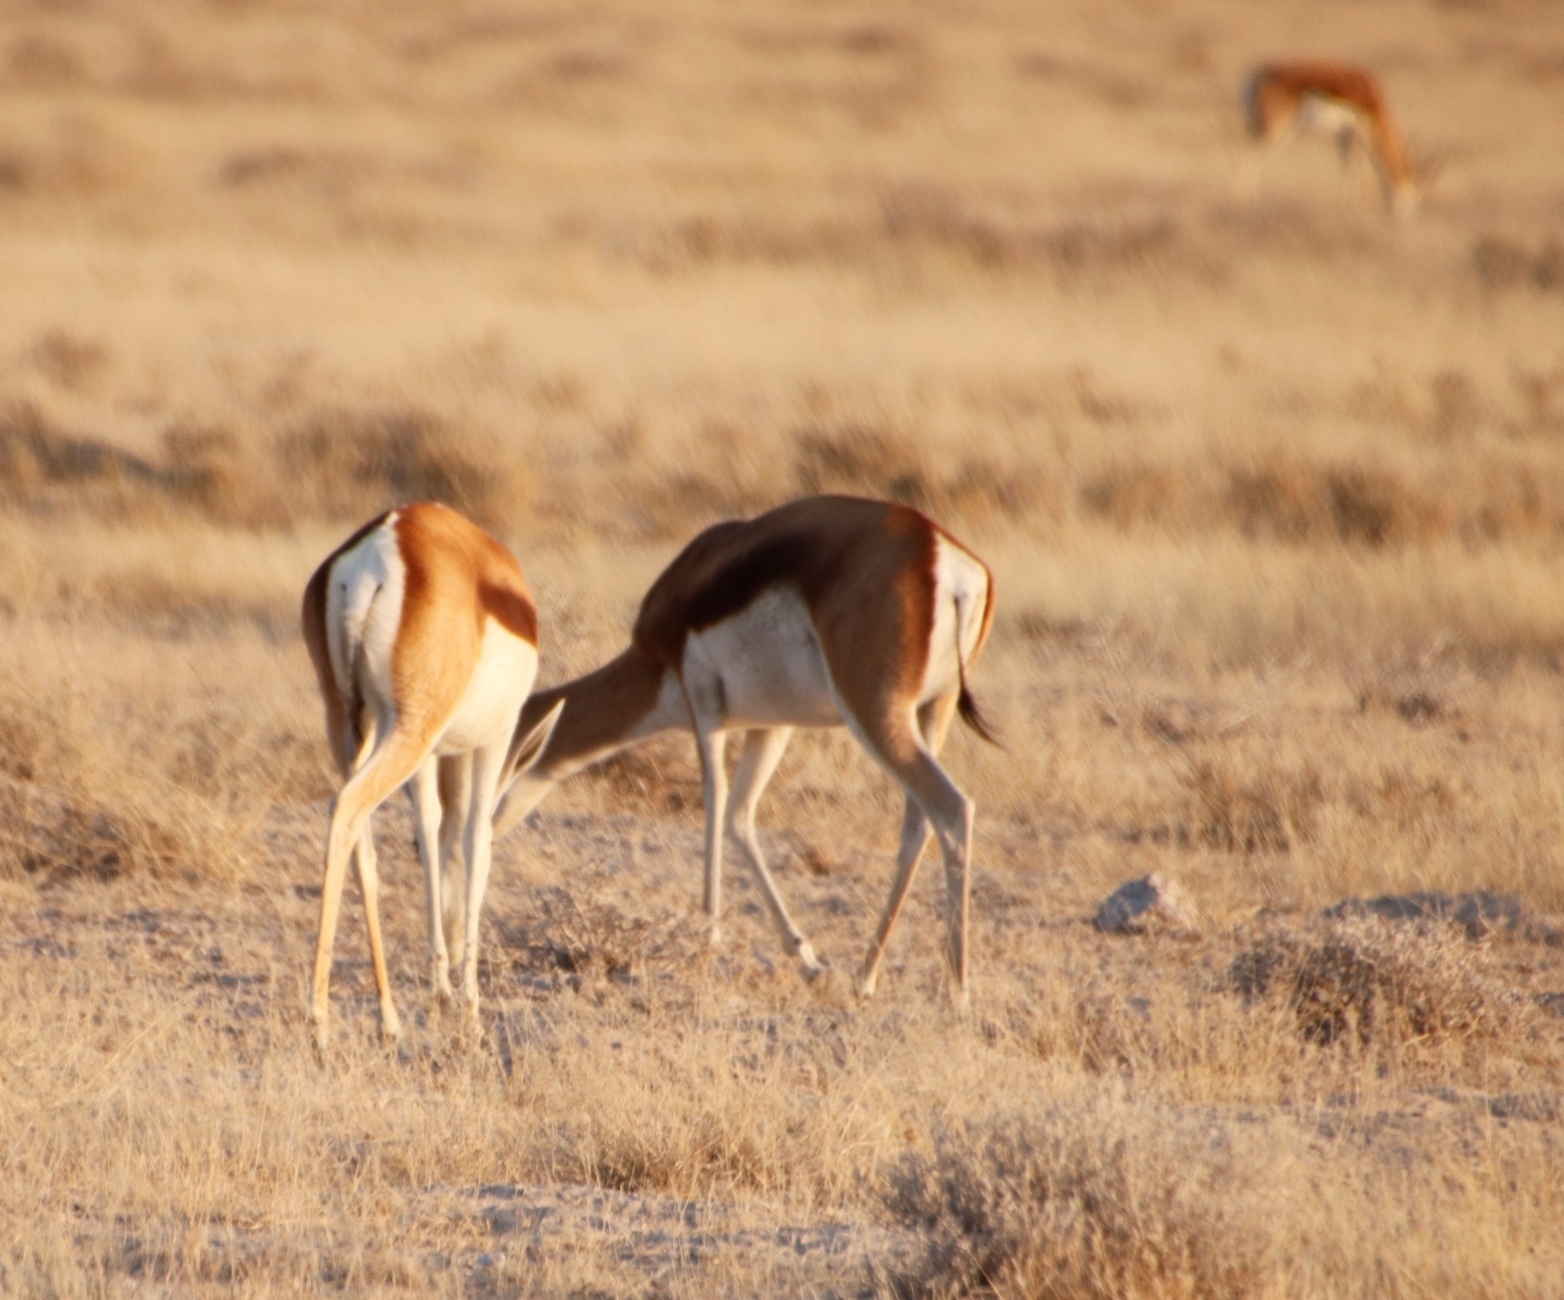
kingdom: Animalia
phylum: Chordata
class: Mammalia
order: Artiodactyla
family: Bovidae
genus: Antidorcas
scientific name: Antidorcas marsupialis
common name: Springbok
